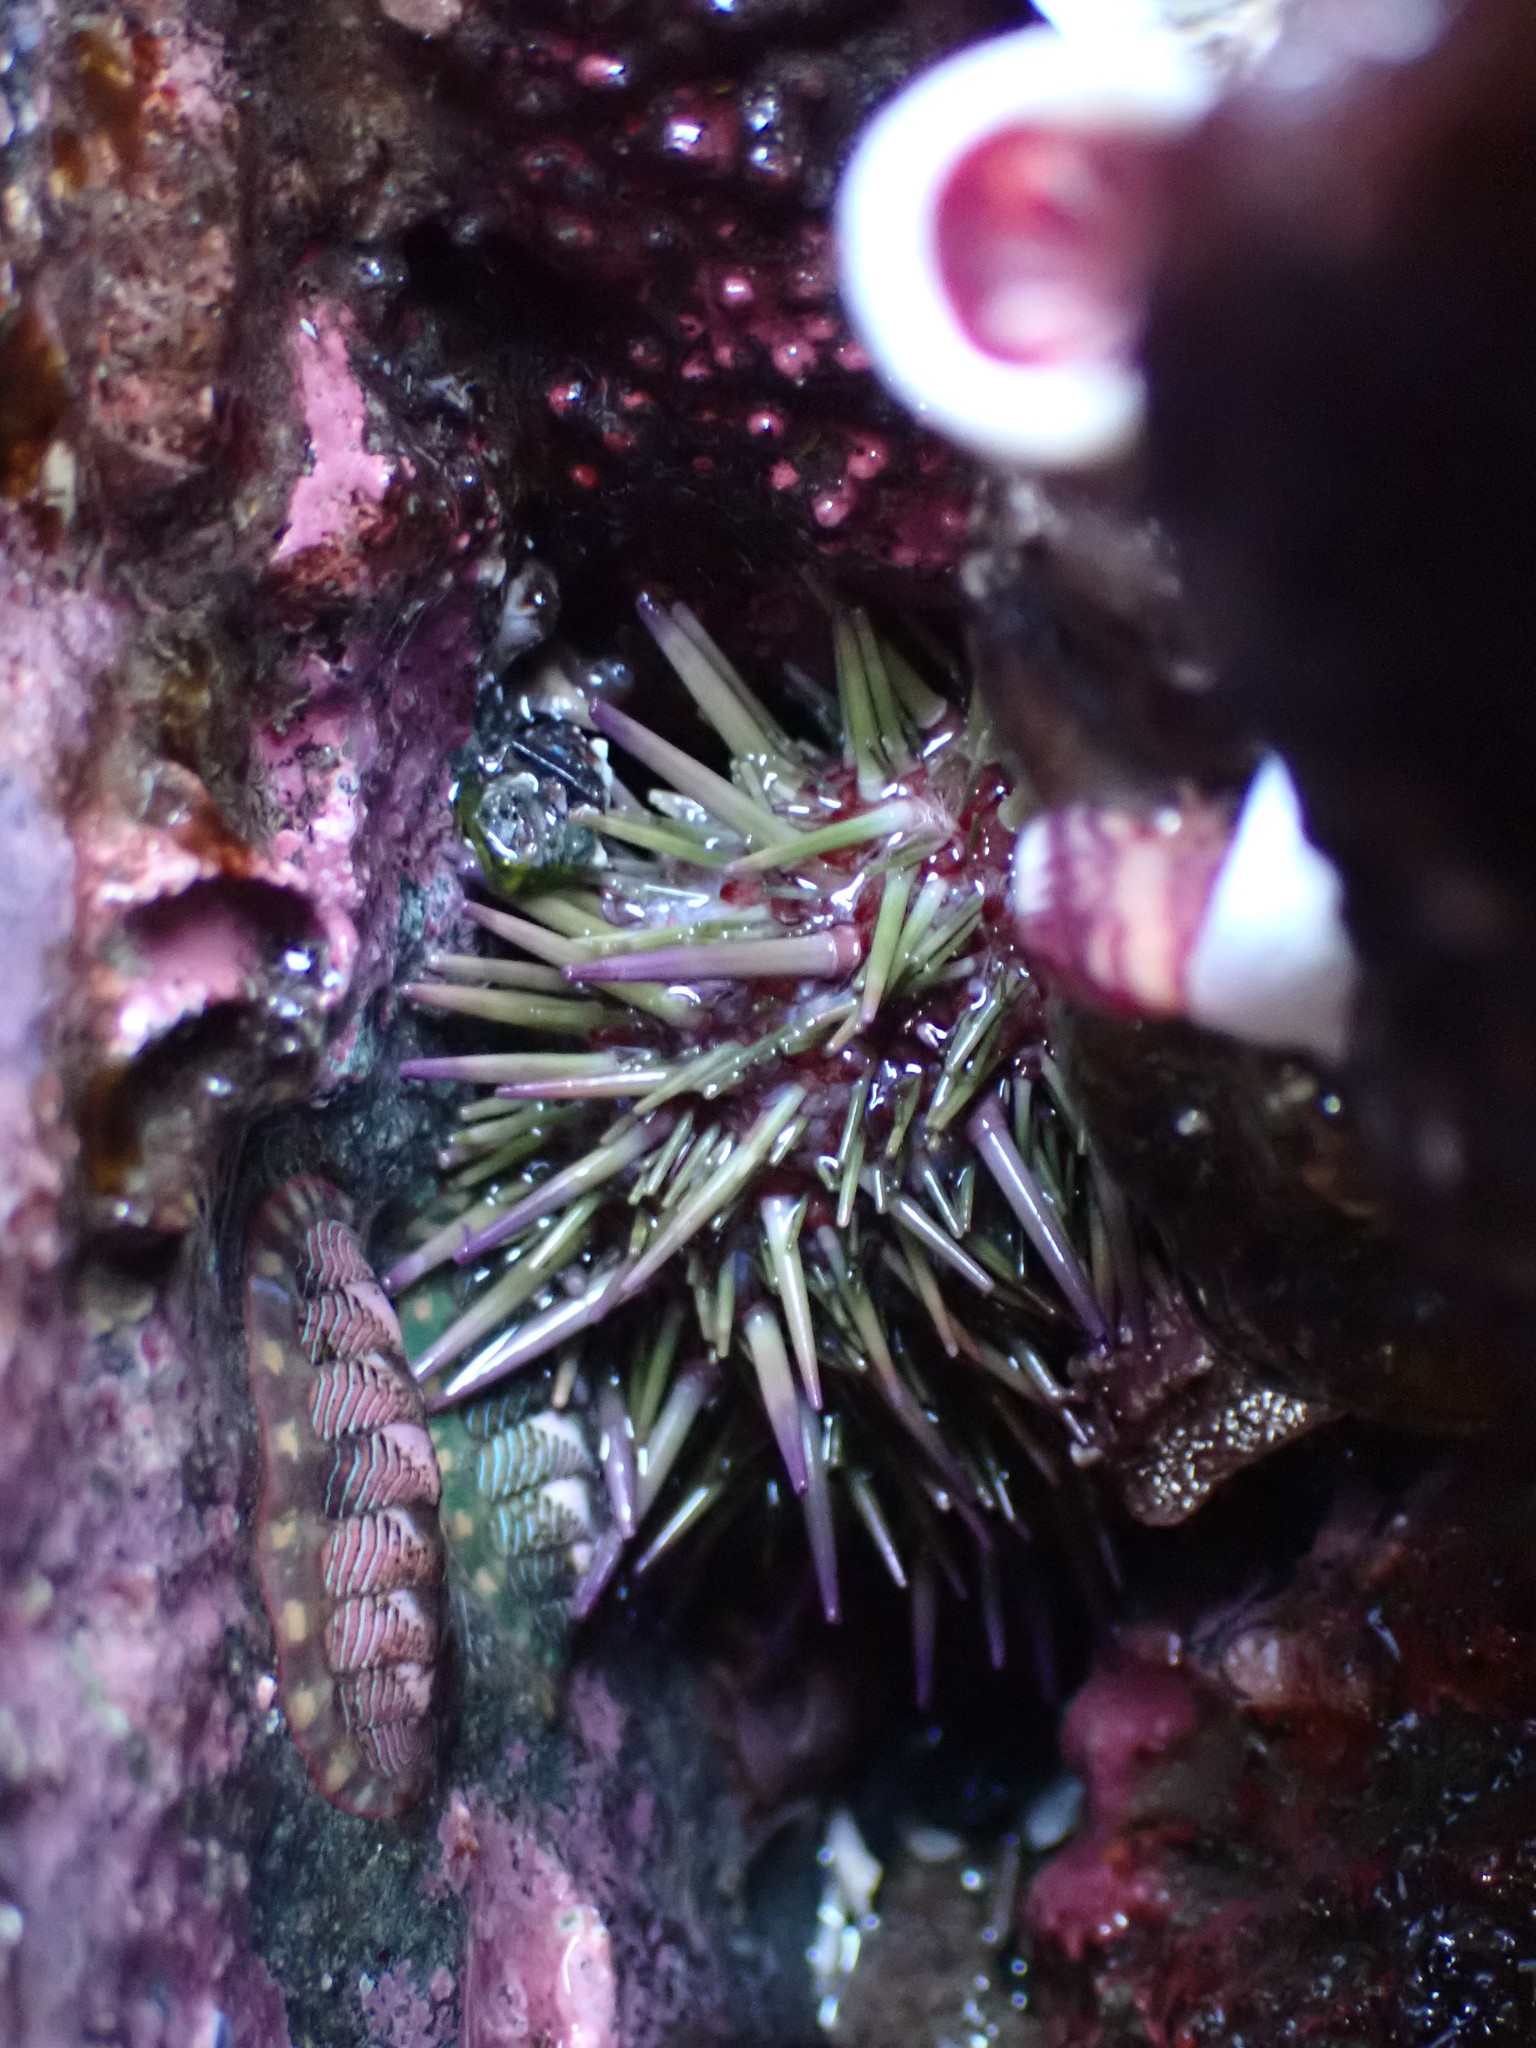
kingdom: Animalia
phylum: Echinodermata
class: Echinoidea
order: Camarodonta
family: Strongylocentrotidae
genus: Strongylocentrotus
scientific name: Strongylocentrotus purpuratus
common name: Purple sea urchin
